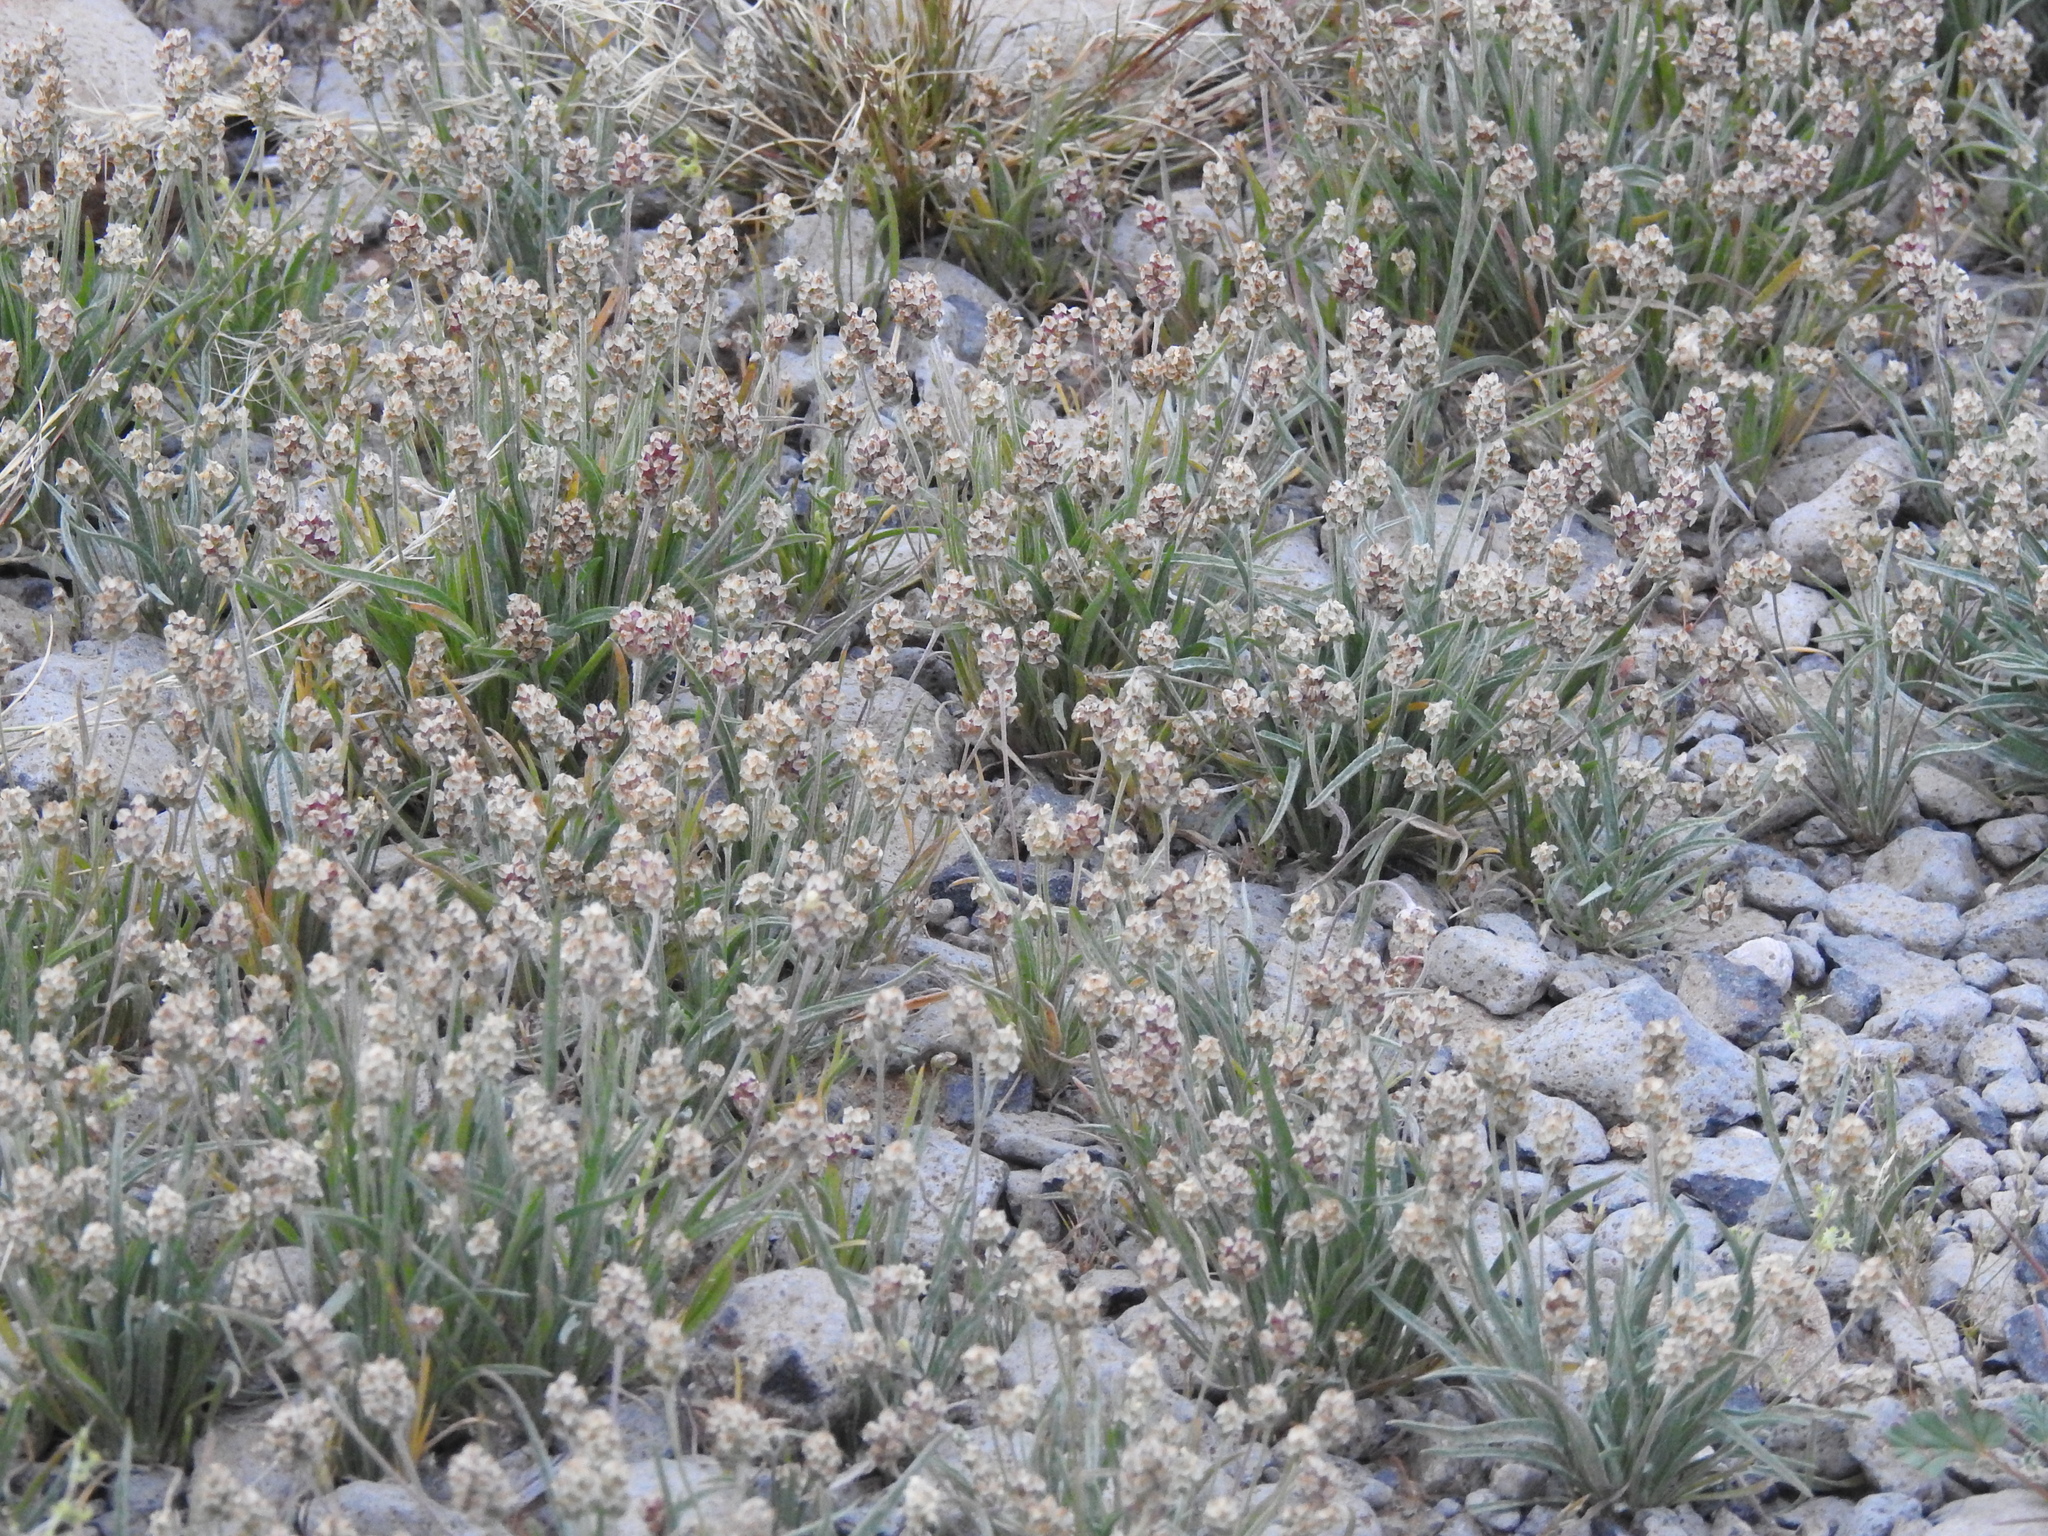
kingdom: Plantae
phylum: Tracheophyta
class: Magnoliopsida
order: Lamiales
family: Plantaginaceae
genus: Plantago
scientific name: Plantago ovata
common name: Blond plantain
